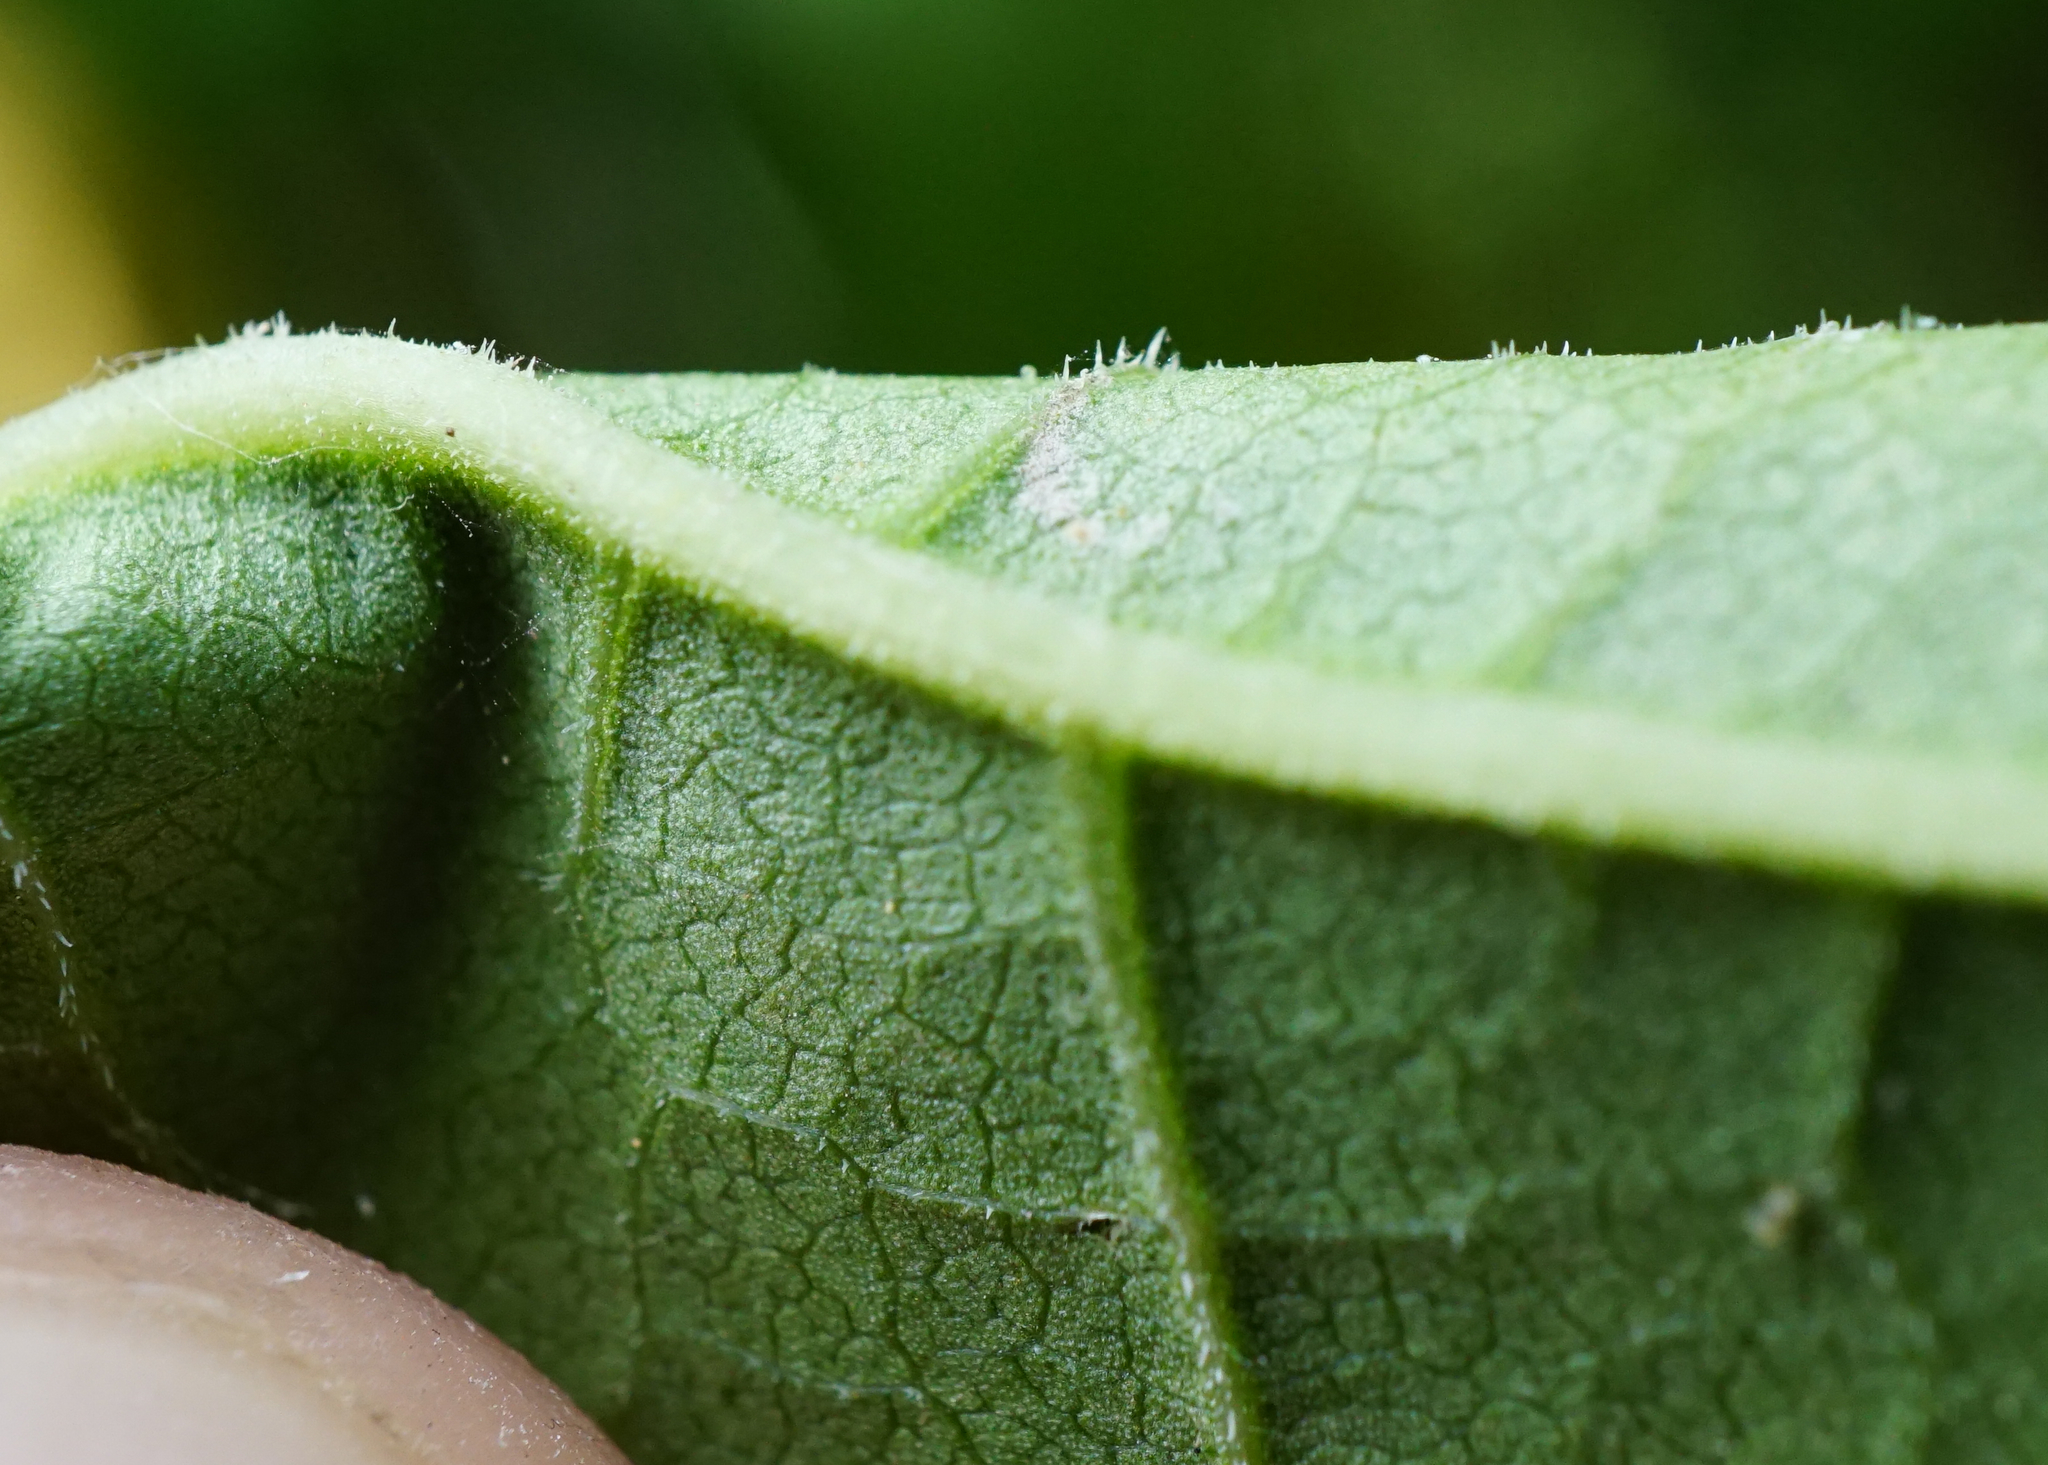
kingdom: Plantae
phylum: Tracheophyta
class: Magnoliopsida
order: Caryophyllales
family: Polygonaceae
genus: Reynoutria
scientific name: Reynoutria bohemica
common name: Bohemian knotweed
